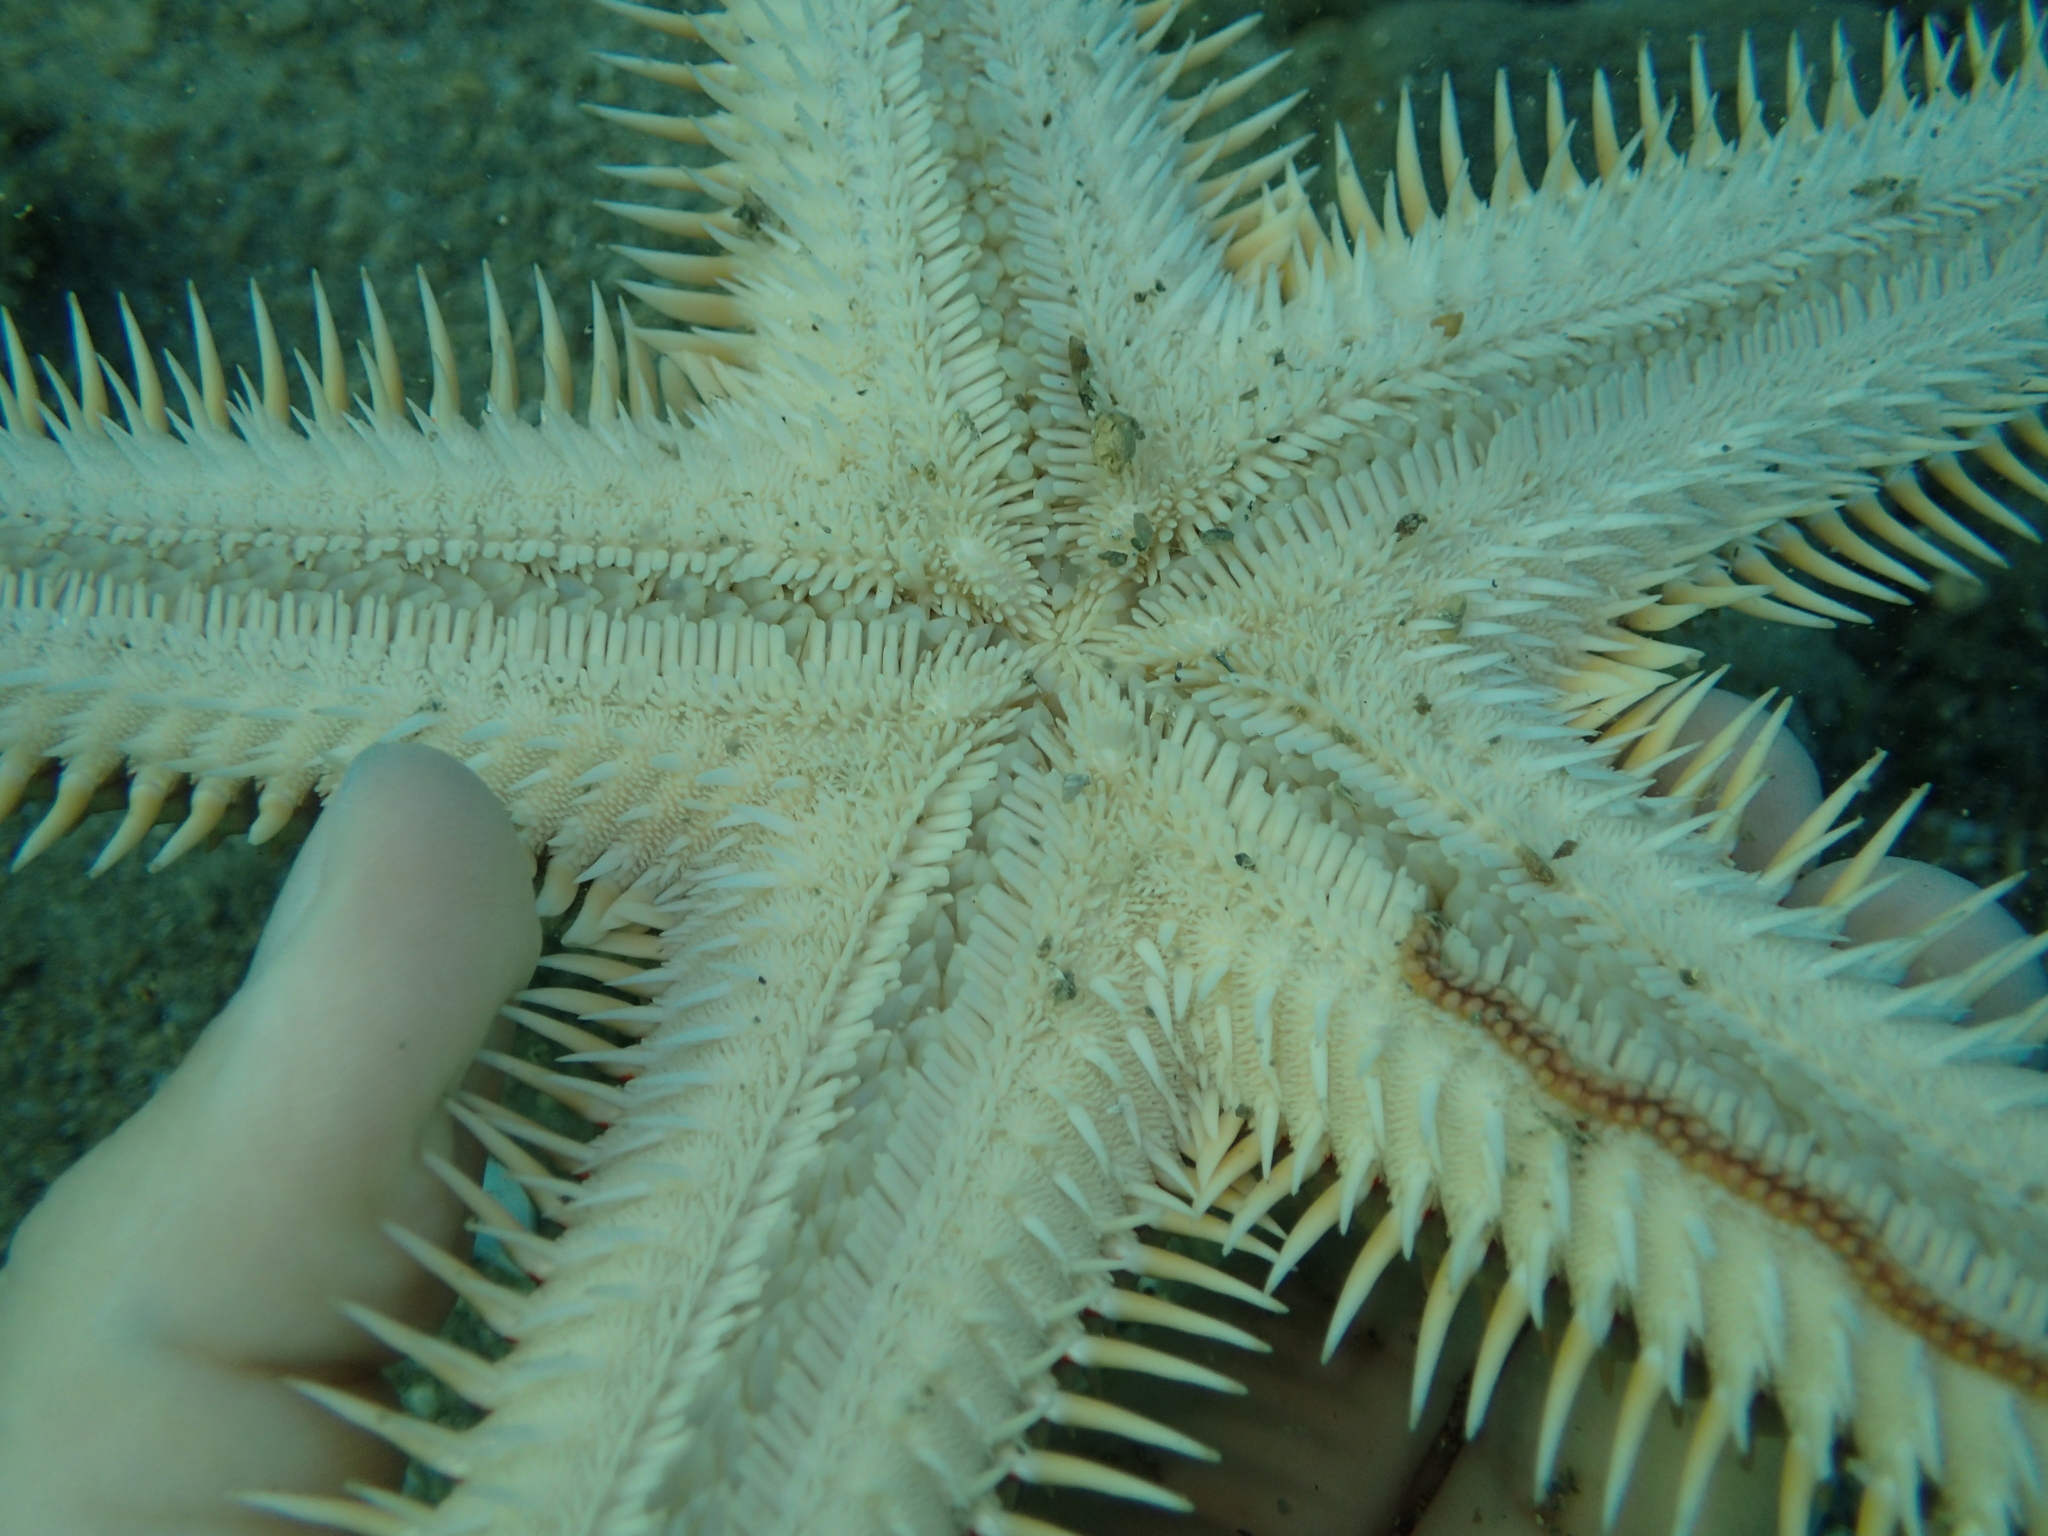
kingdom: Animalia
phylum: Echinodermata
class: Asteroidea
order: Paxillosida
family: Astropectinidae
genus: Astropecten
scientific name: Astropecten aranciacus
